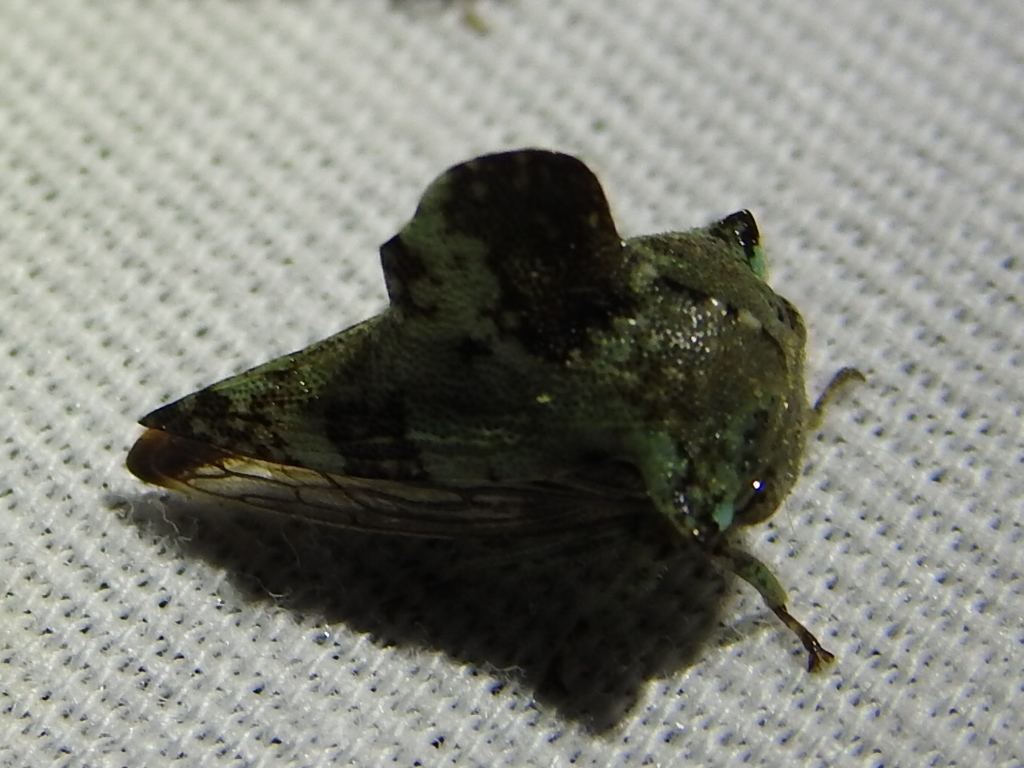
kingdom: Animalia
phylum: Arthropoda
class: Insecta
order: Hemiptera
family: Membracidae
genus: Telamona
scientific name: Telamona concava
